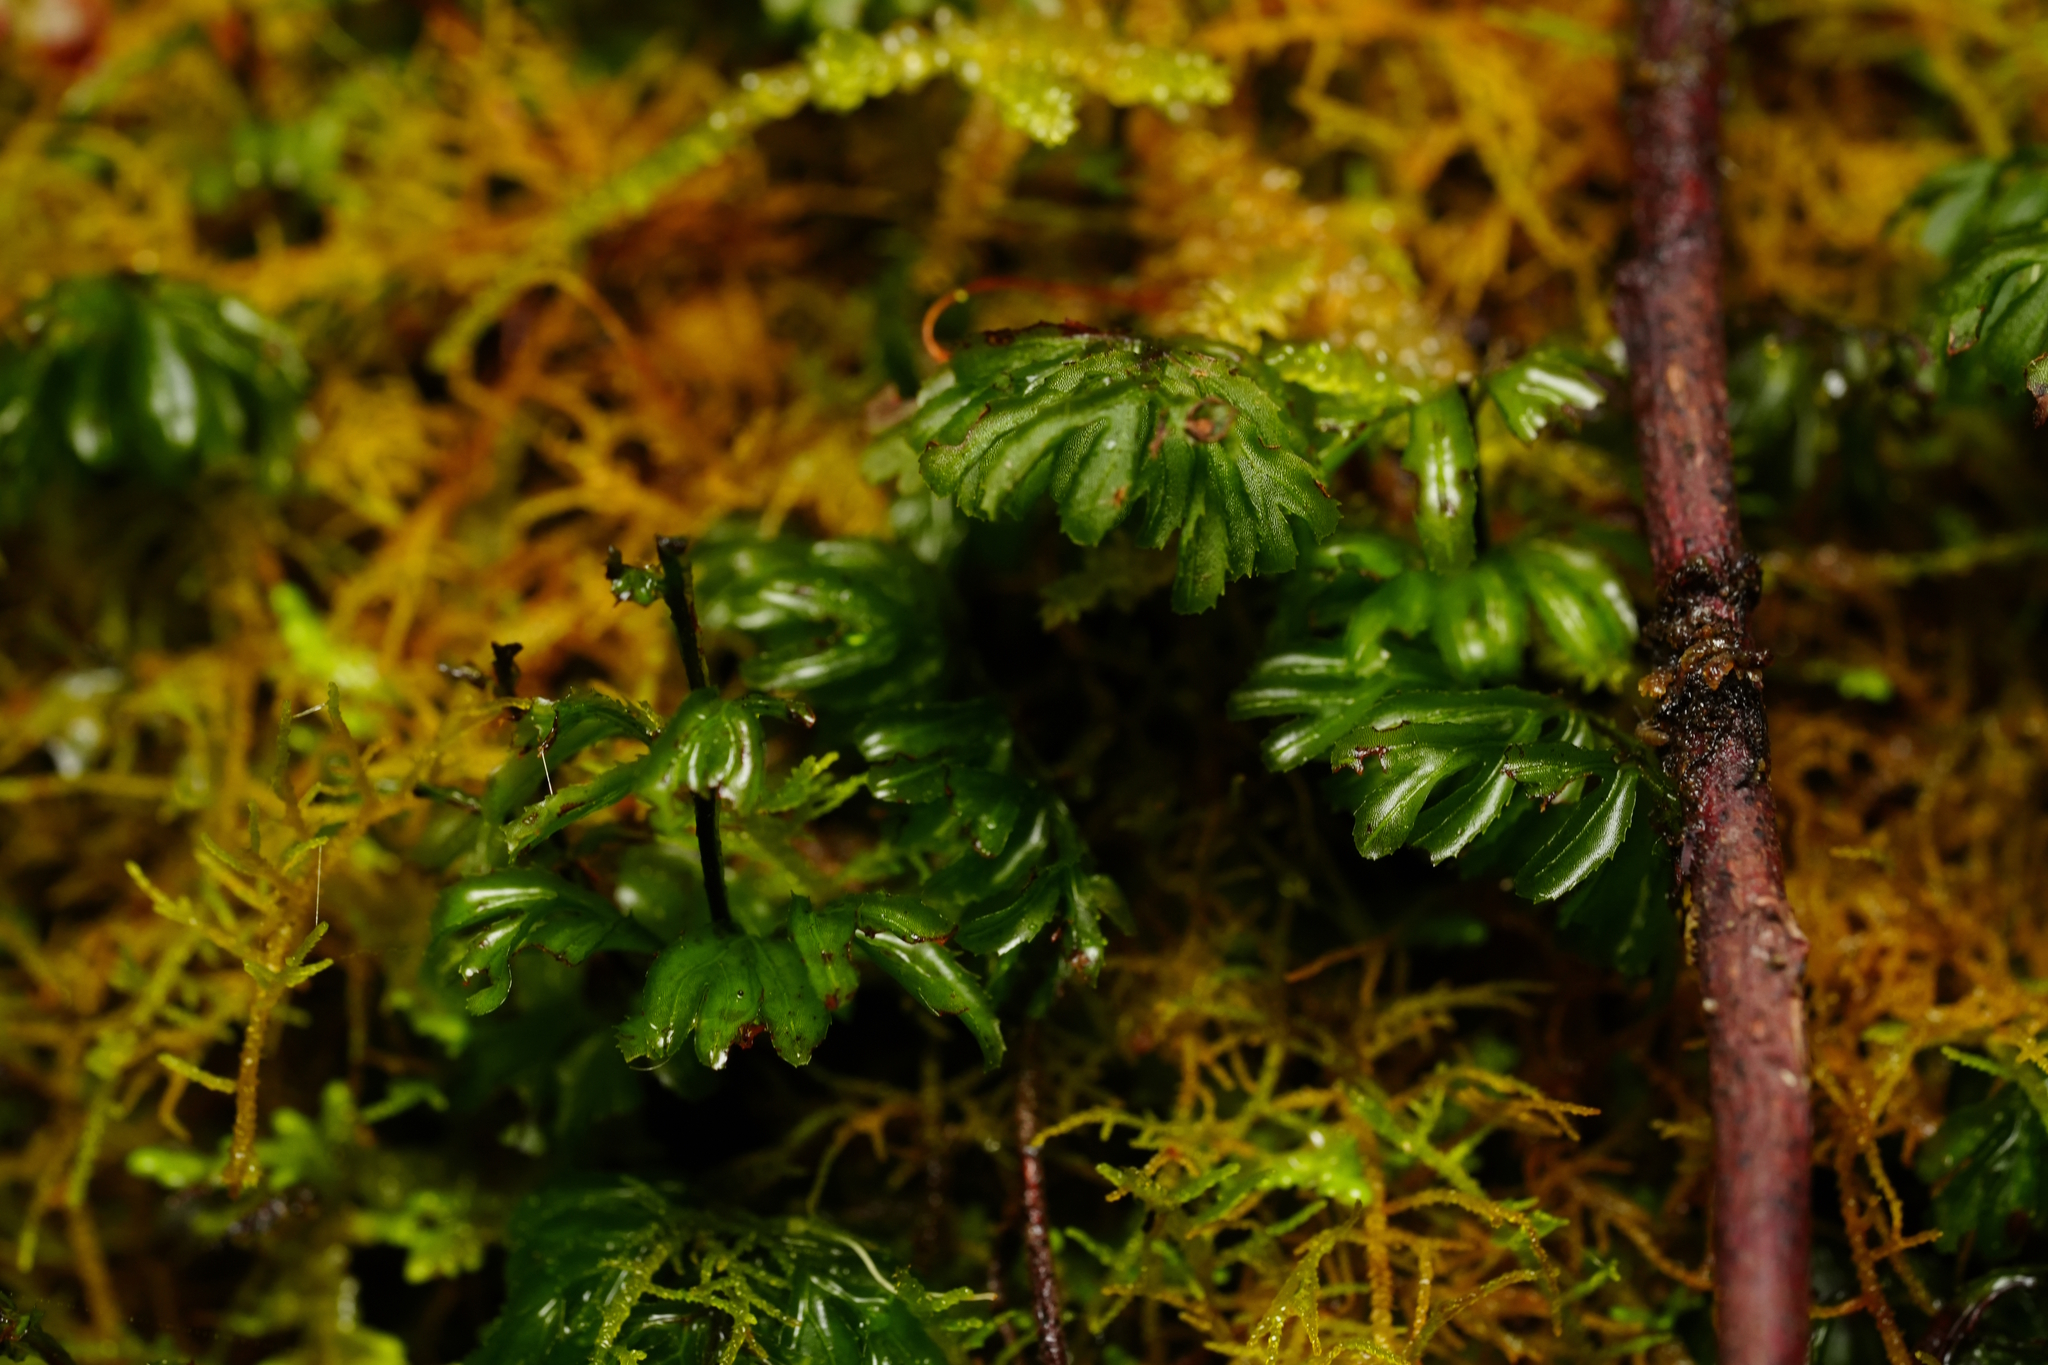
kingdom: Plantae
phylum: Tracheophyta
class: Polypodiopsida
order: Hymenophyllales
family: Hymenophyllaceae
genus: Hymenophyllum
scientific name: Hymenophyllum cupressiforme
